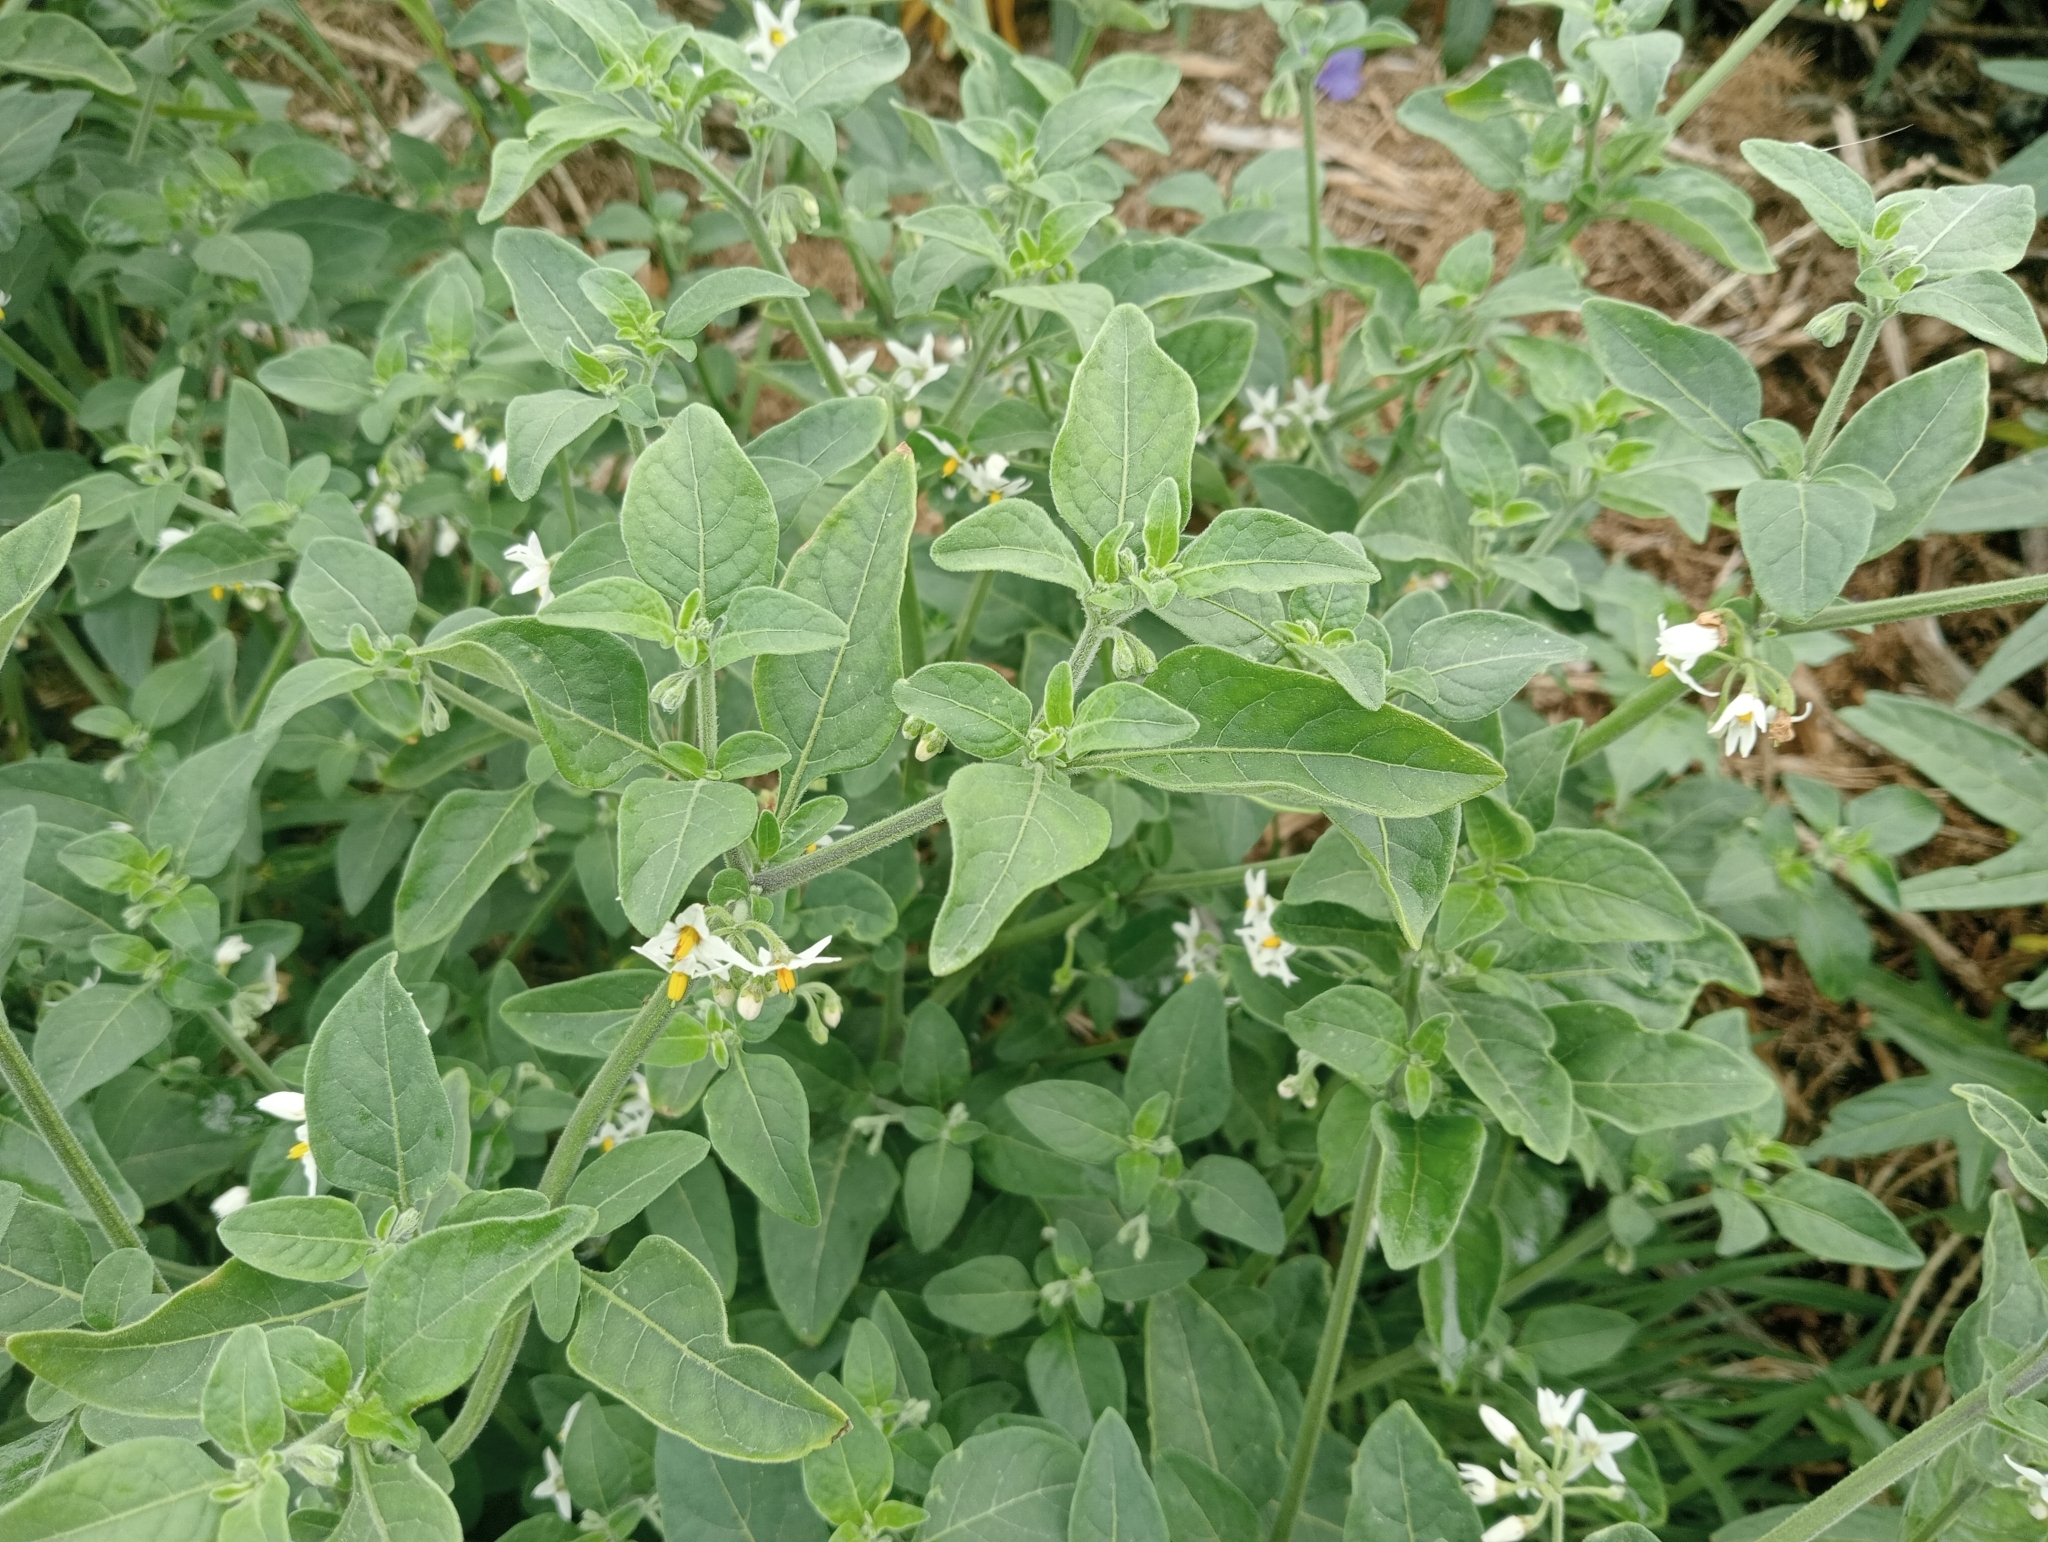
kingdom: Plantae
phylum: Tracheophyta
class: Magnoliopsida
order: Solanales
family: Solanaceae
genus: Solanum
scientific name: Solanum chenopodioides
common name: Tall nightshade
